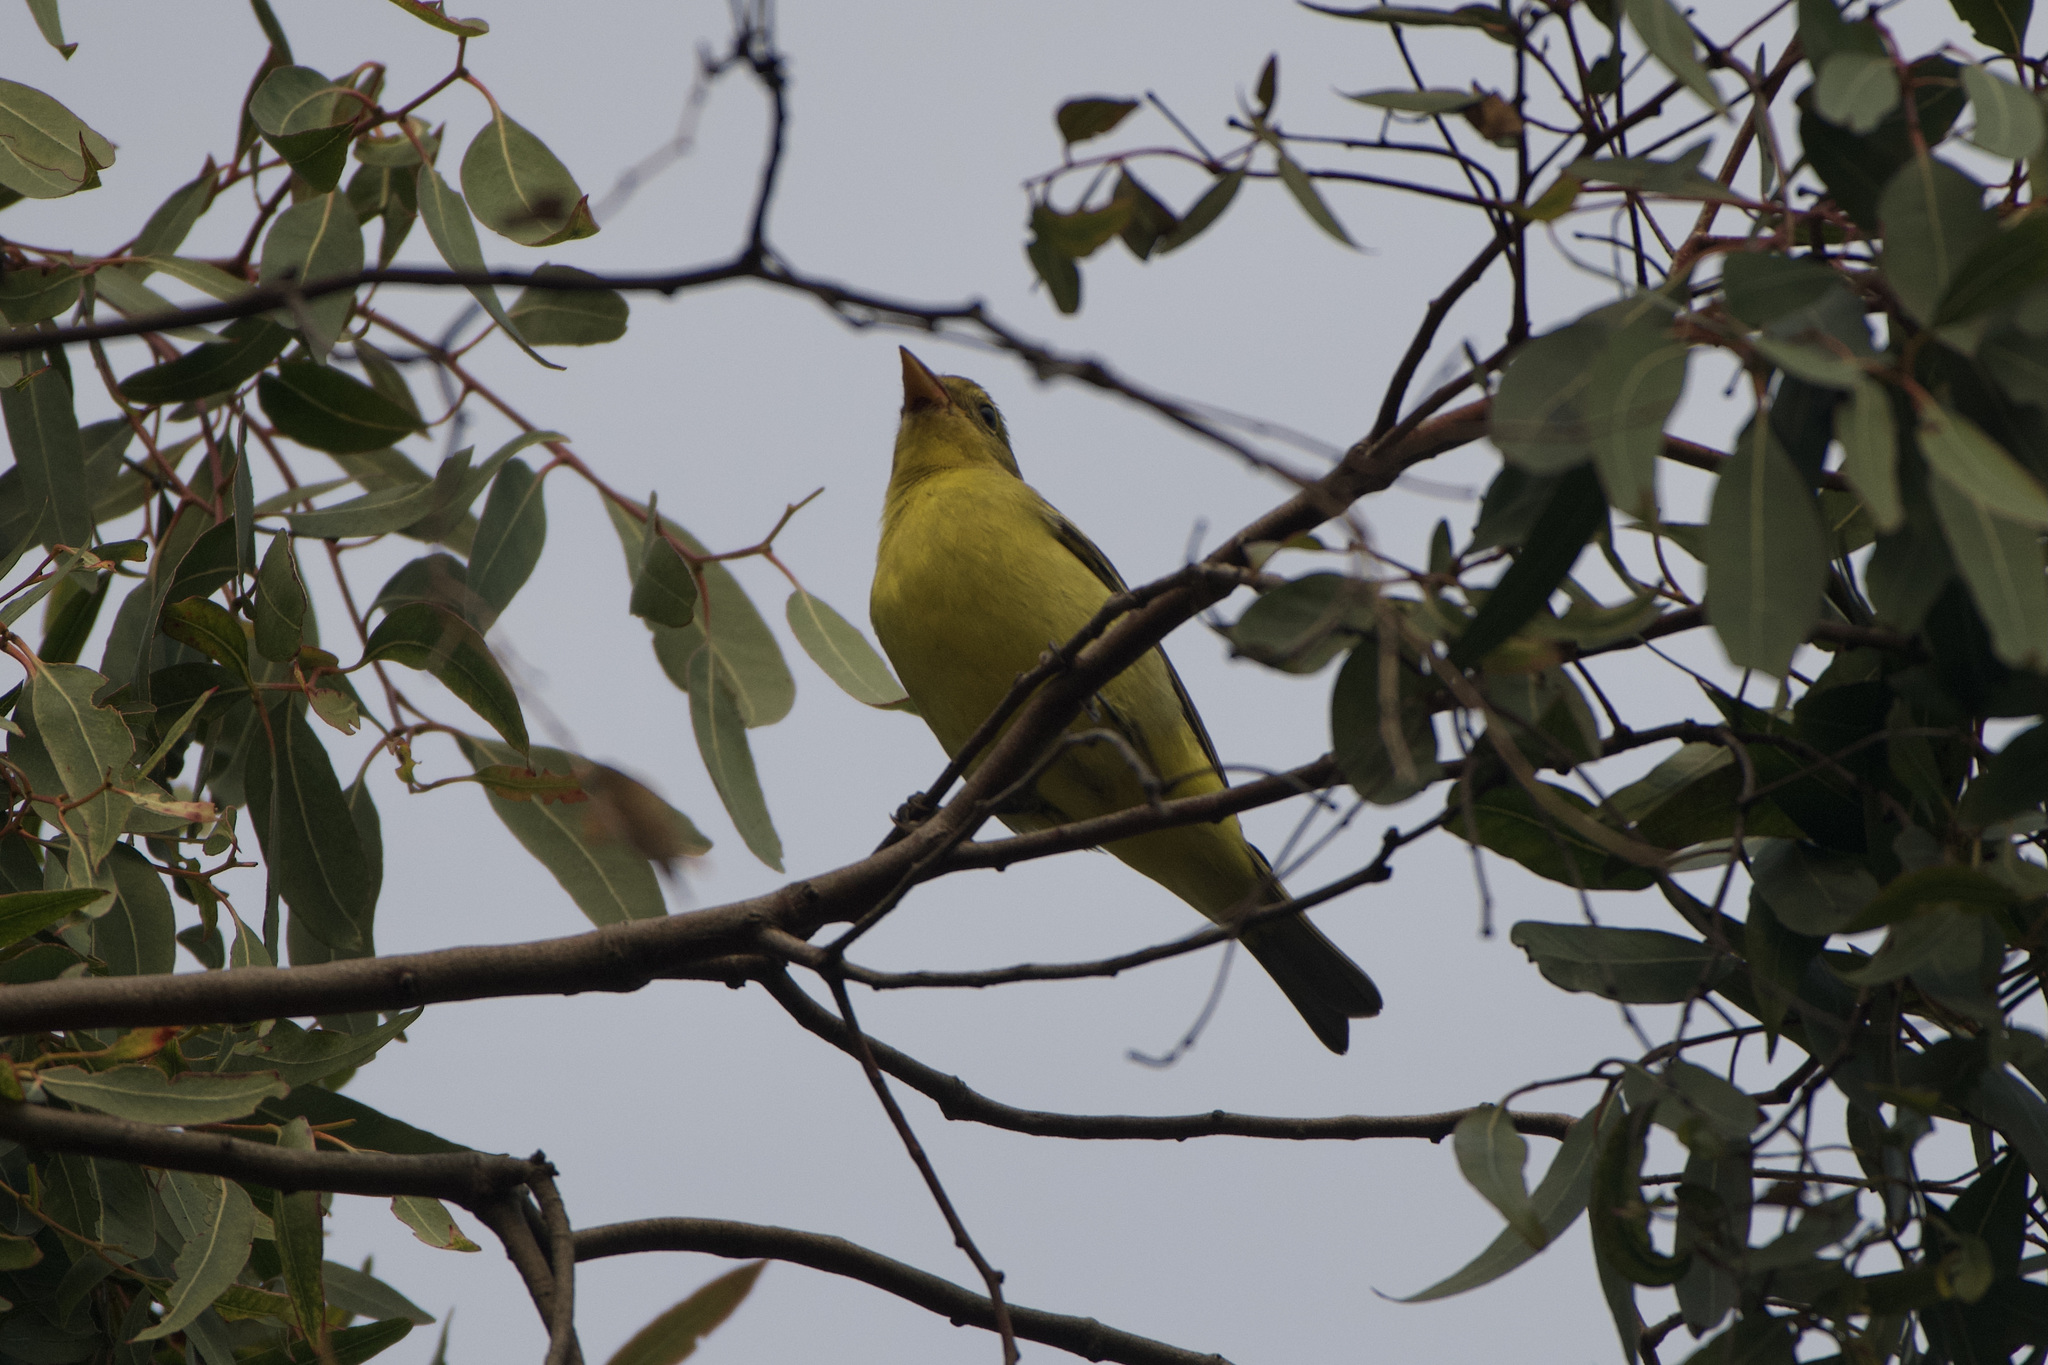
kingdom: Animalia
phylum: Chordata
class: Aves
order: Passeriformes
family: Cardinalidae
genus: Piranga
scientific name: Piranga ludoviciana
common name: Western tanager
